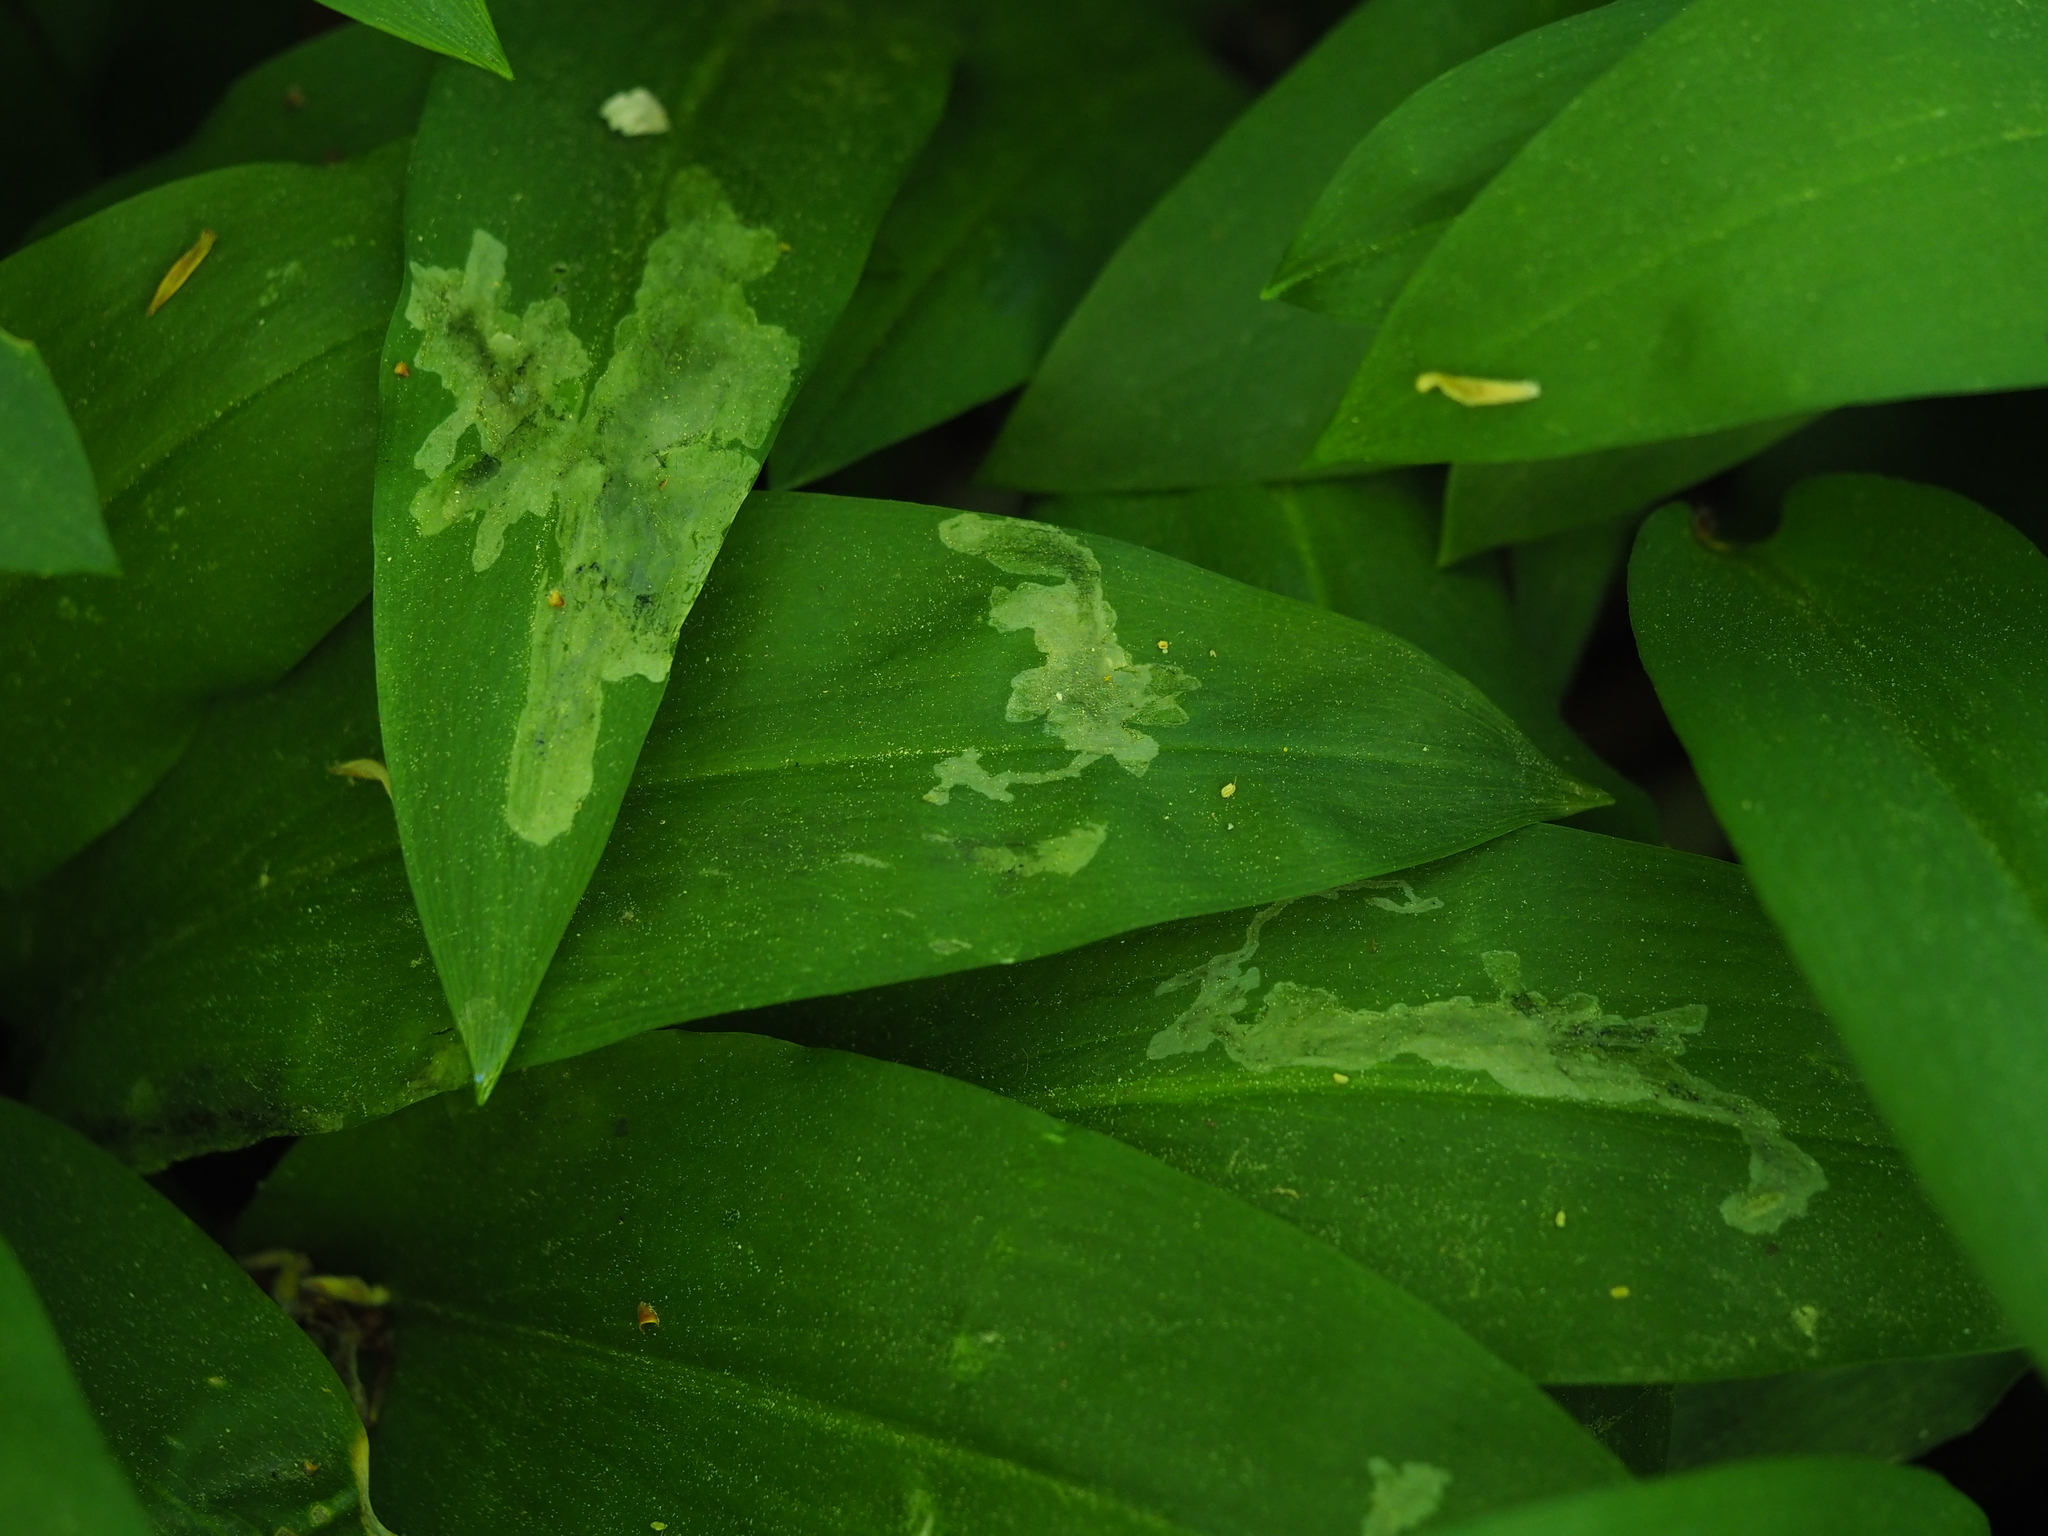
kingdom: Animalia
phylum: Arthropoda
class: Insecta
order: Diptera
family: Syrphidae
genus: Cheilosia
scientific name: Cheilosia fasciata
